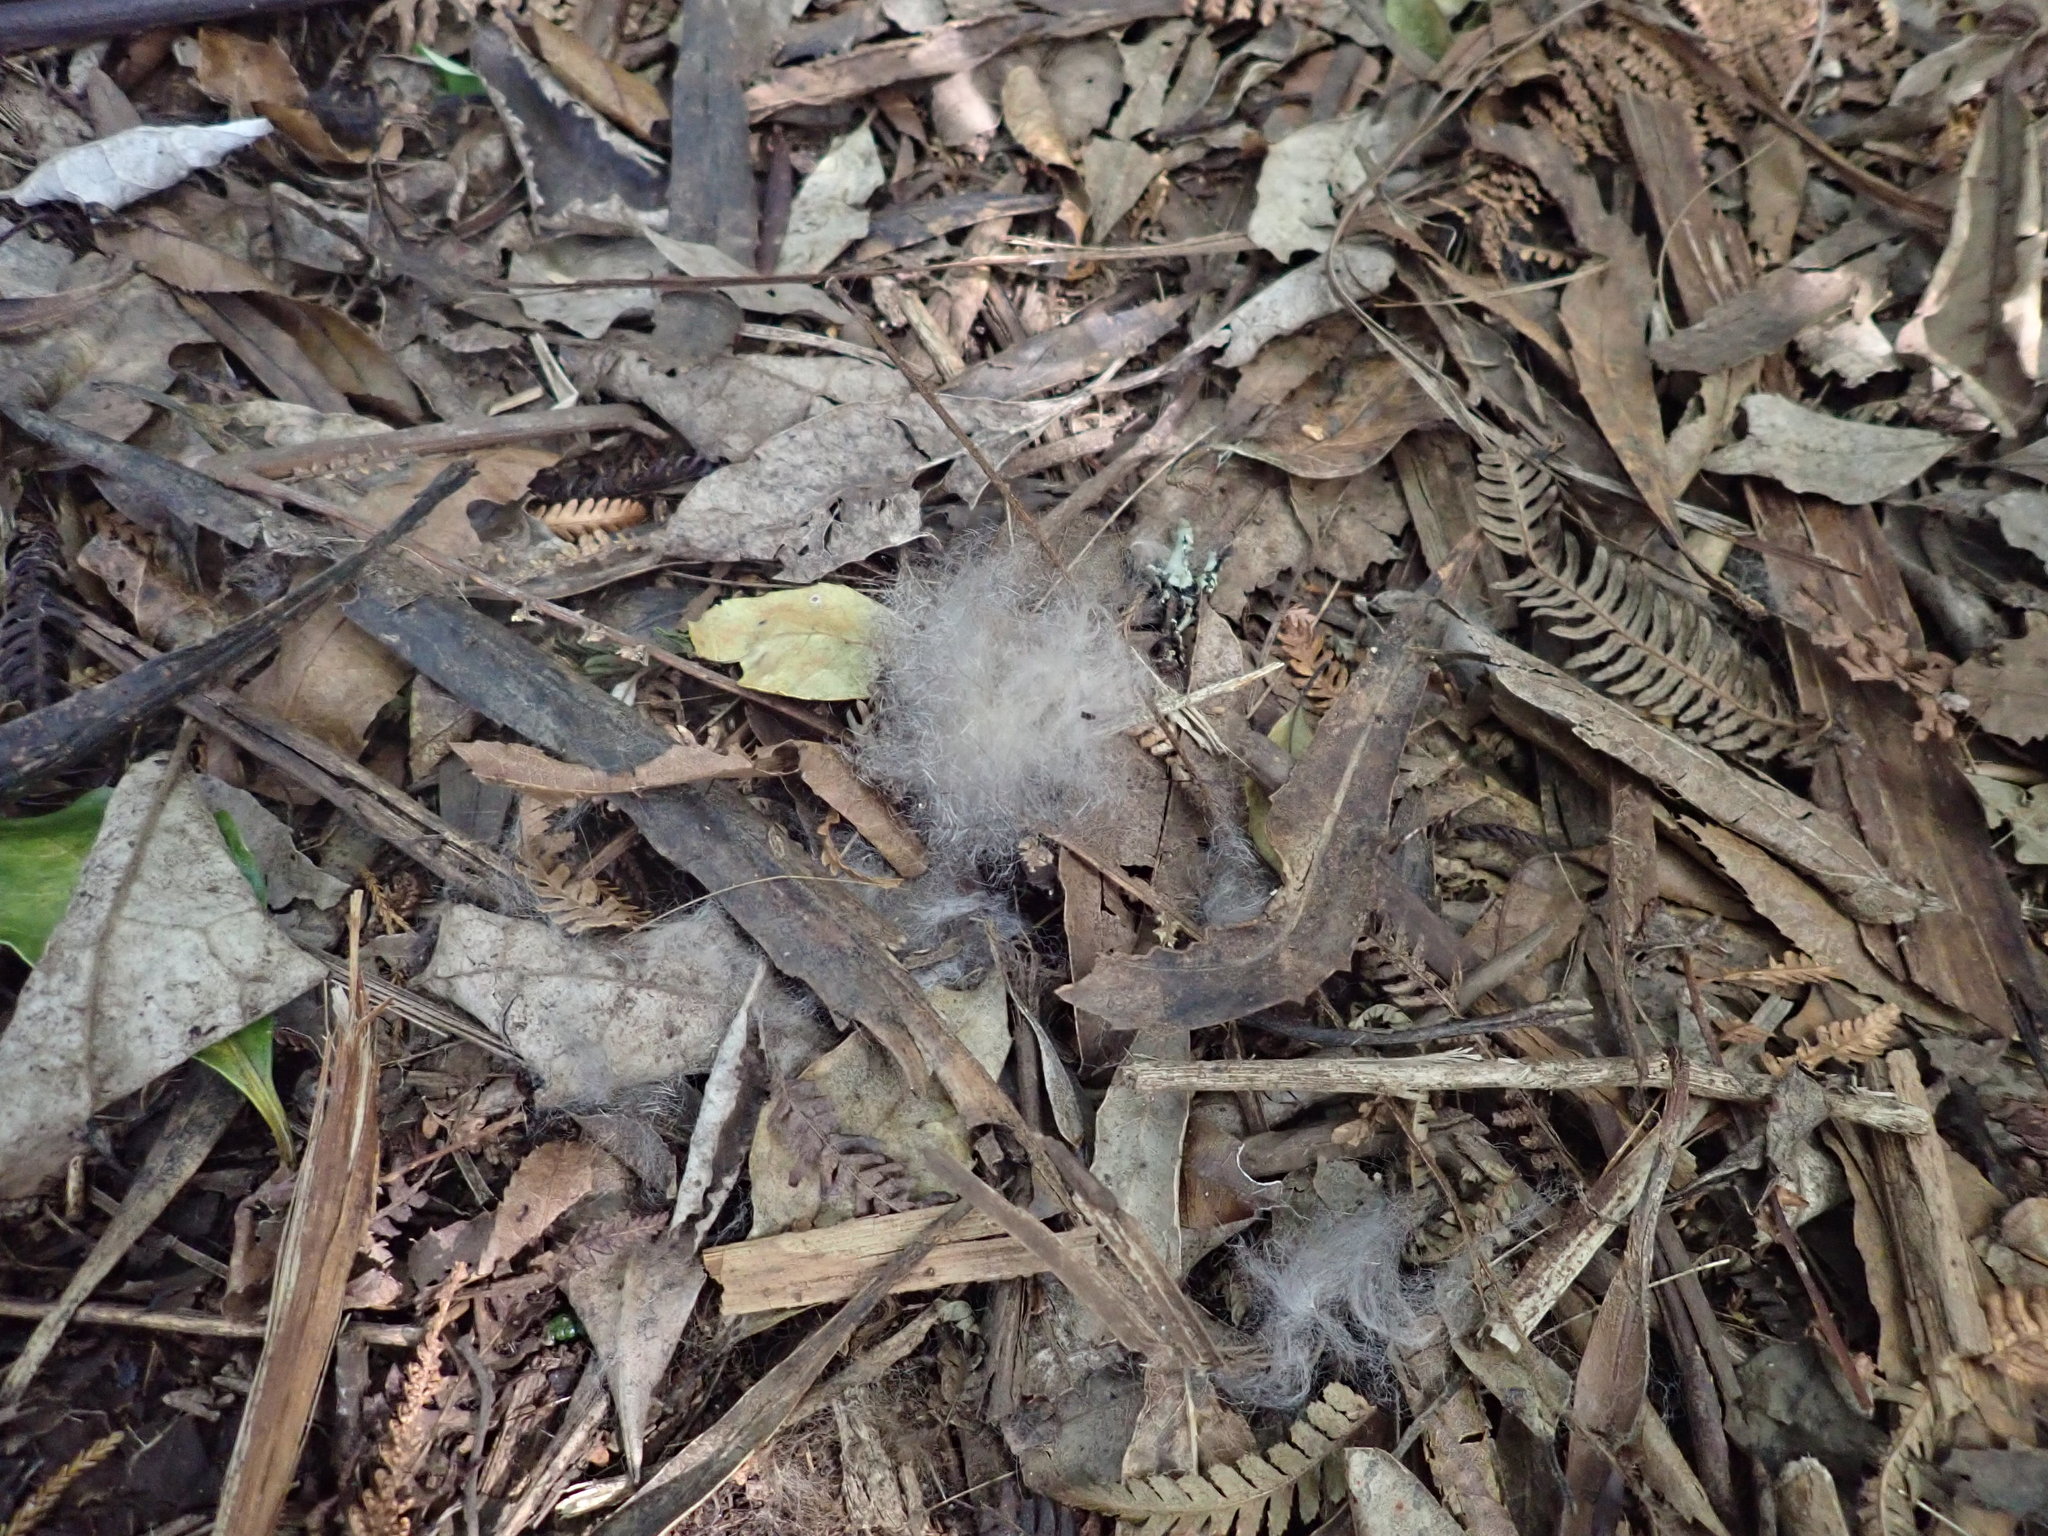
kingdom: Animalia
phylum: Chordata
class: Mammalia
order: Diprotodontia
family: Phalangeridae
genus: Trichosurus
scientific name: Trichosurus vulpecula
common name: Common brushtail
